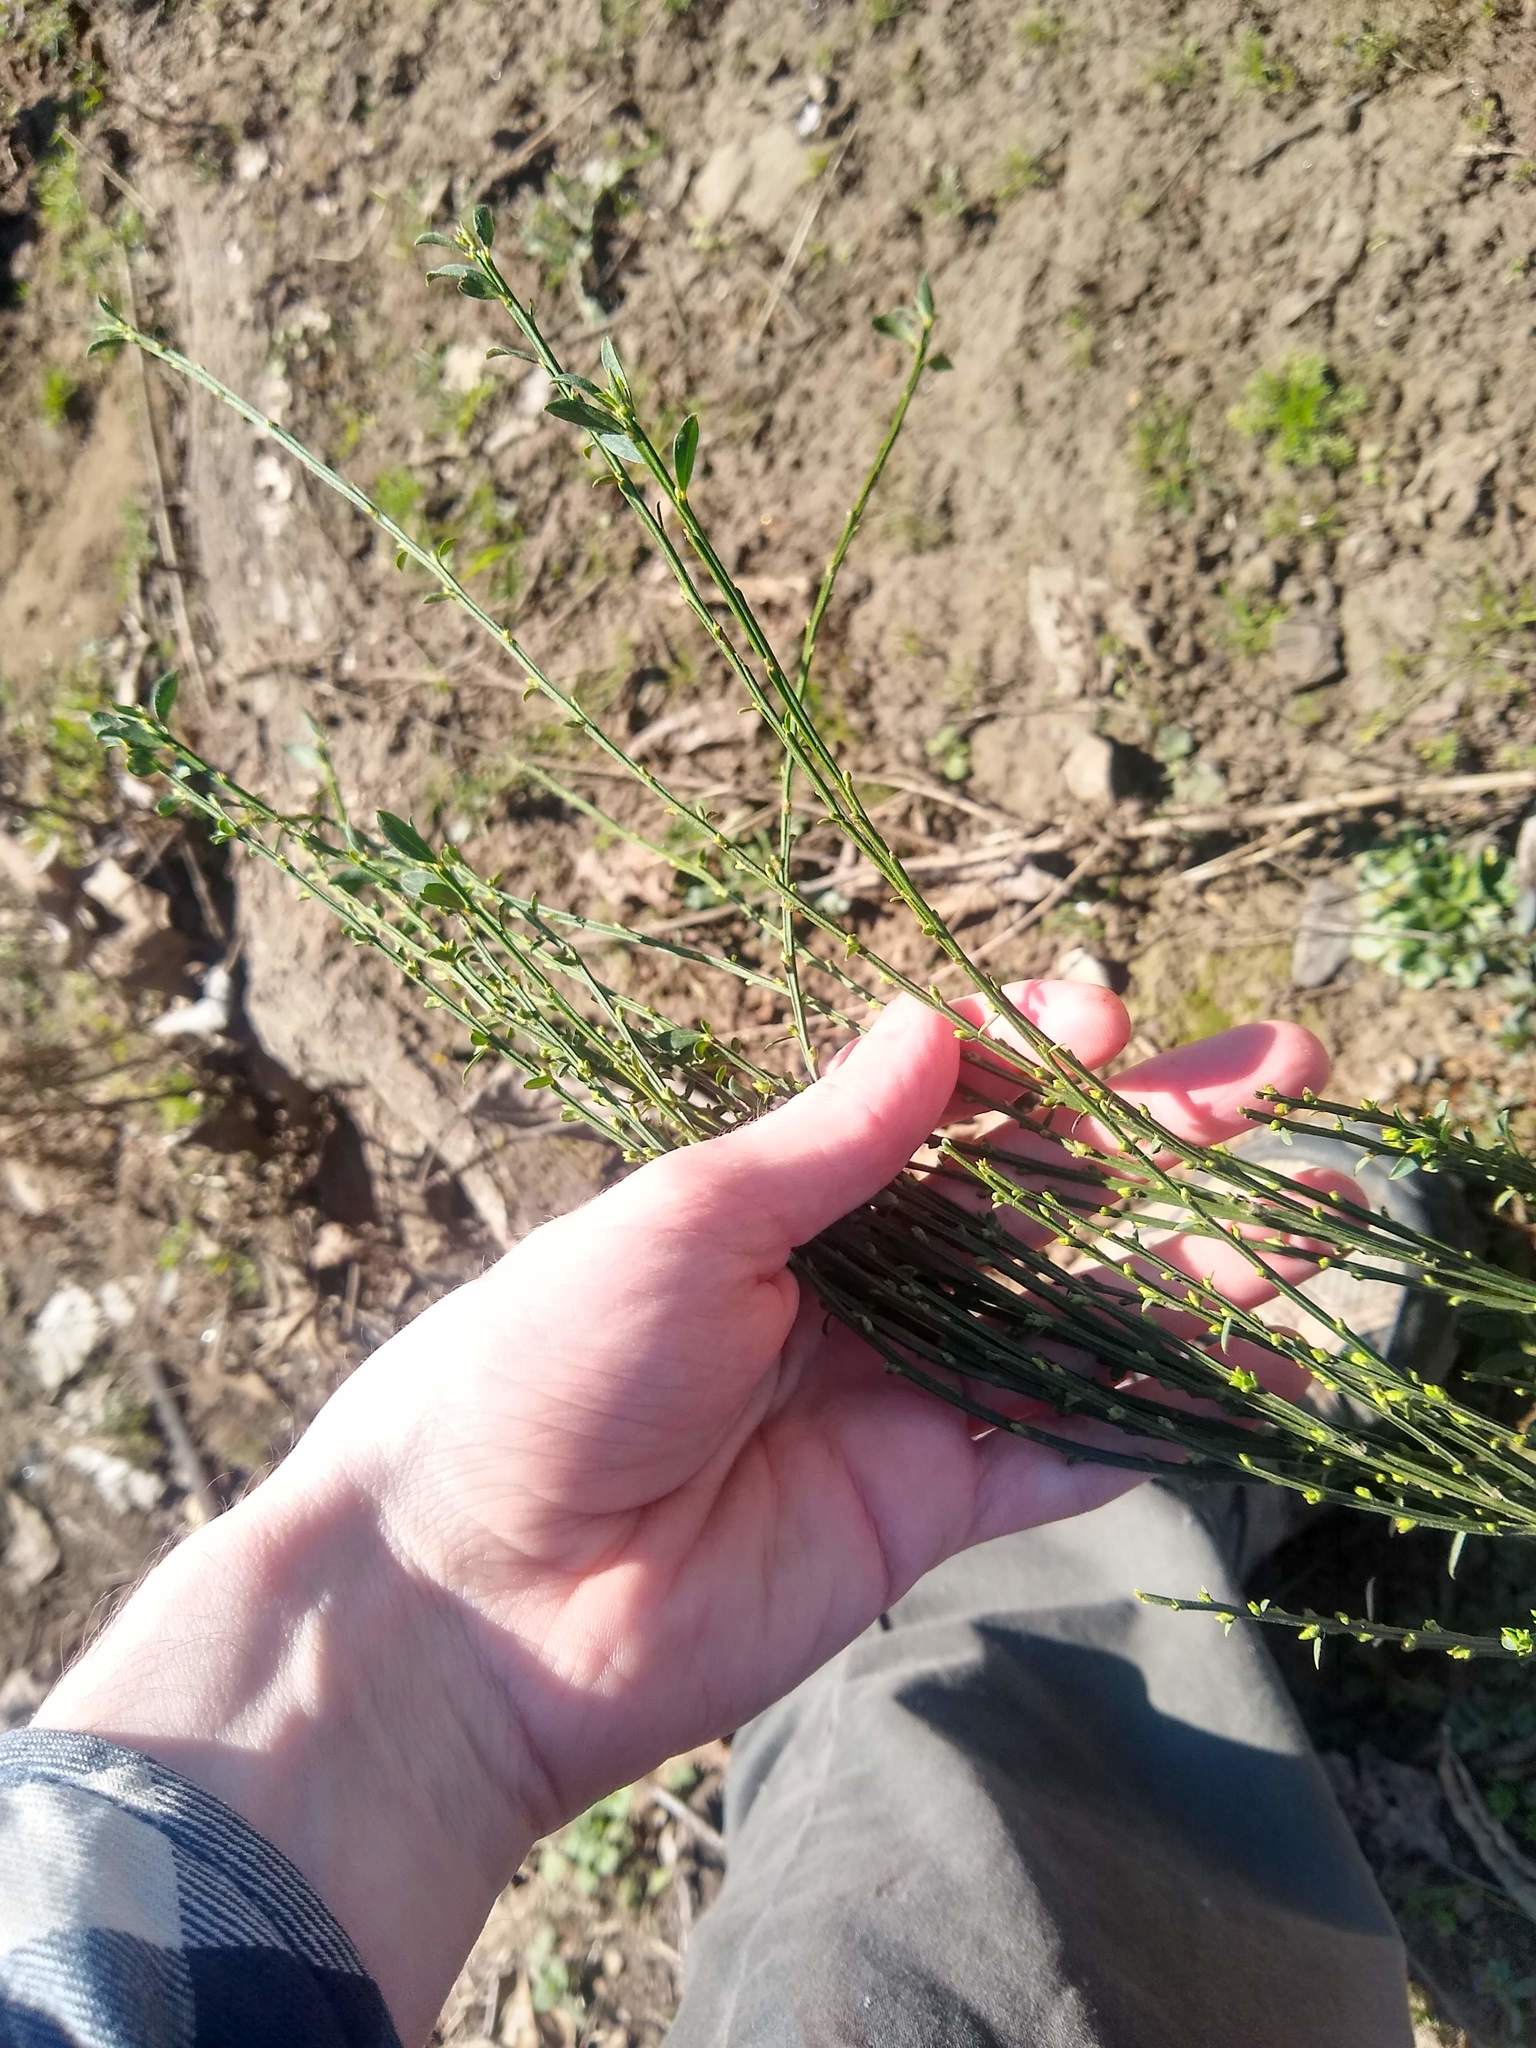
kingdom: Plantae
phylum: Tracheophyta
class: Magnoliopsida
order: Fabales
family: Fabaceae
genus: Cytisus
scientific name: Cytisus scoparius
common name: Scotch broom
